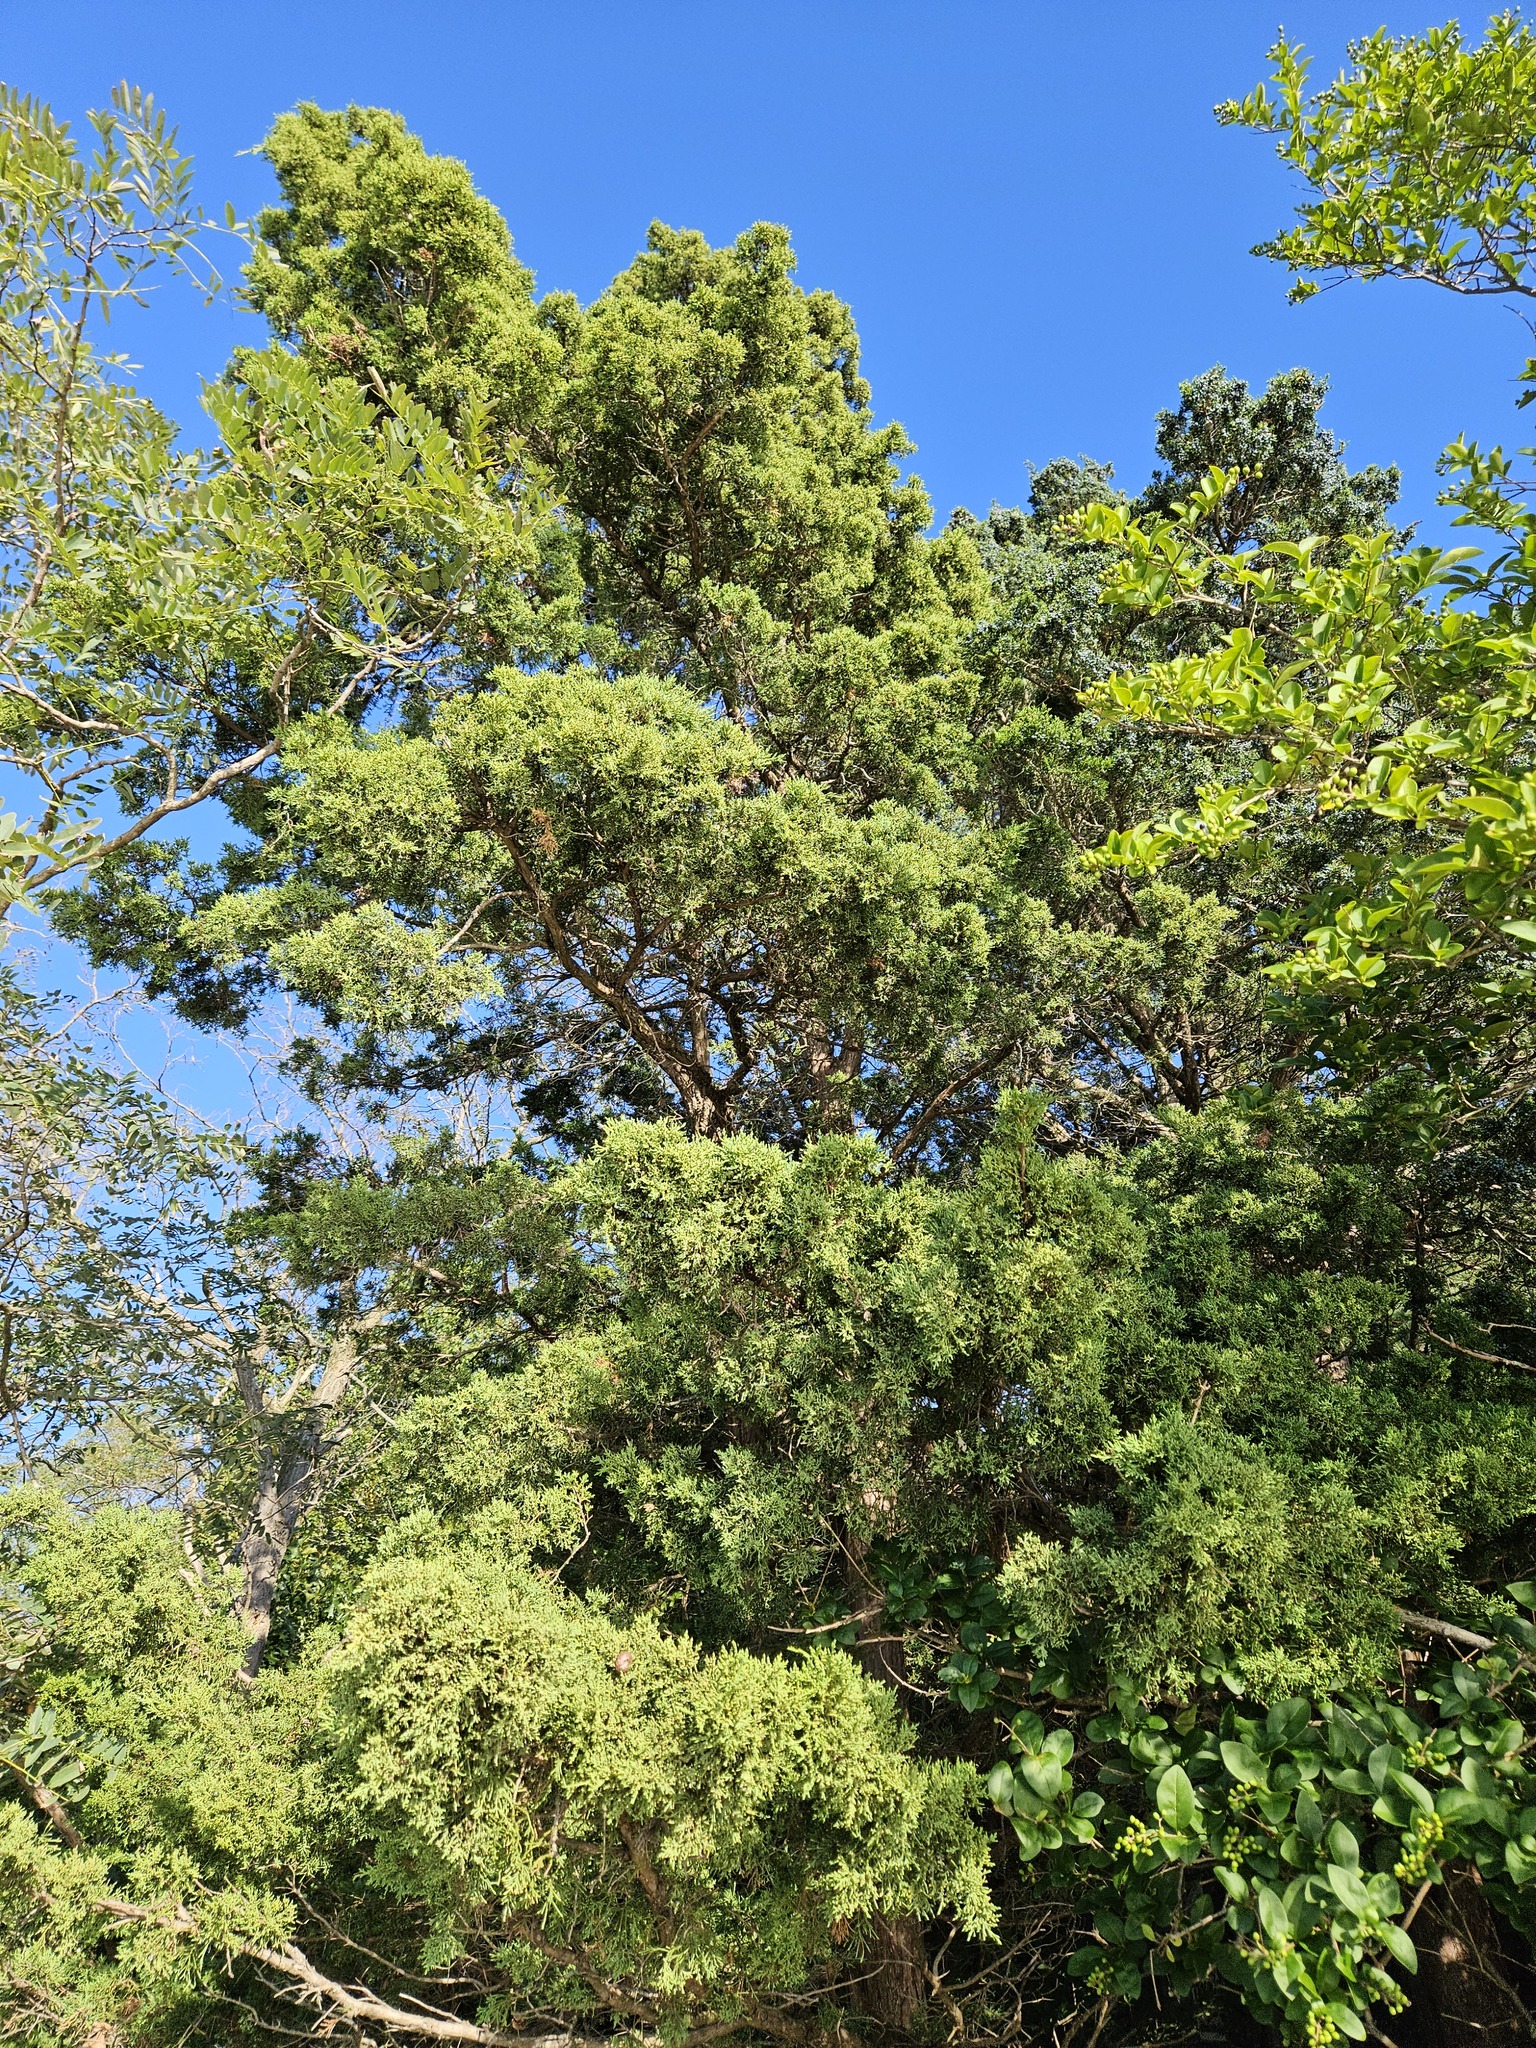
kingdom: Plantae
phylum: Tracheophyta
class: Pinopsida
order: Pinales
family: Cupressaceae
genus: Juniperus
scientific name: Juniperus virginiana
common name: Red juniper
